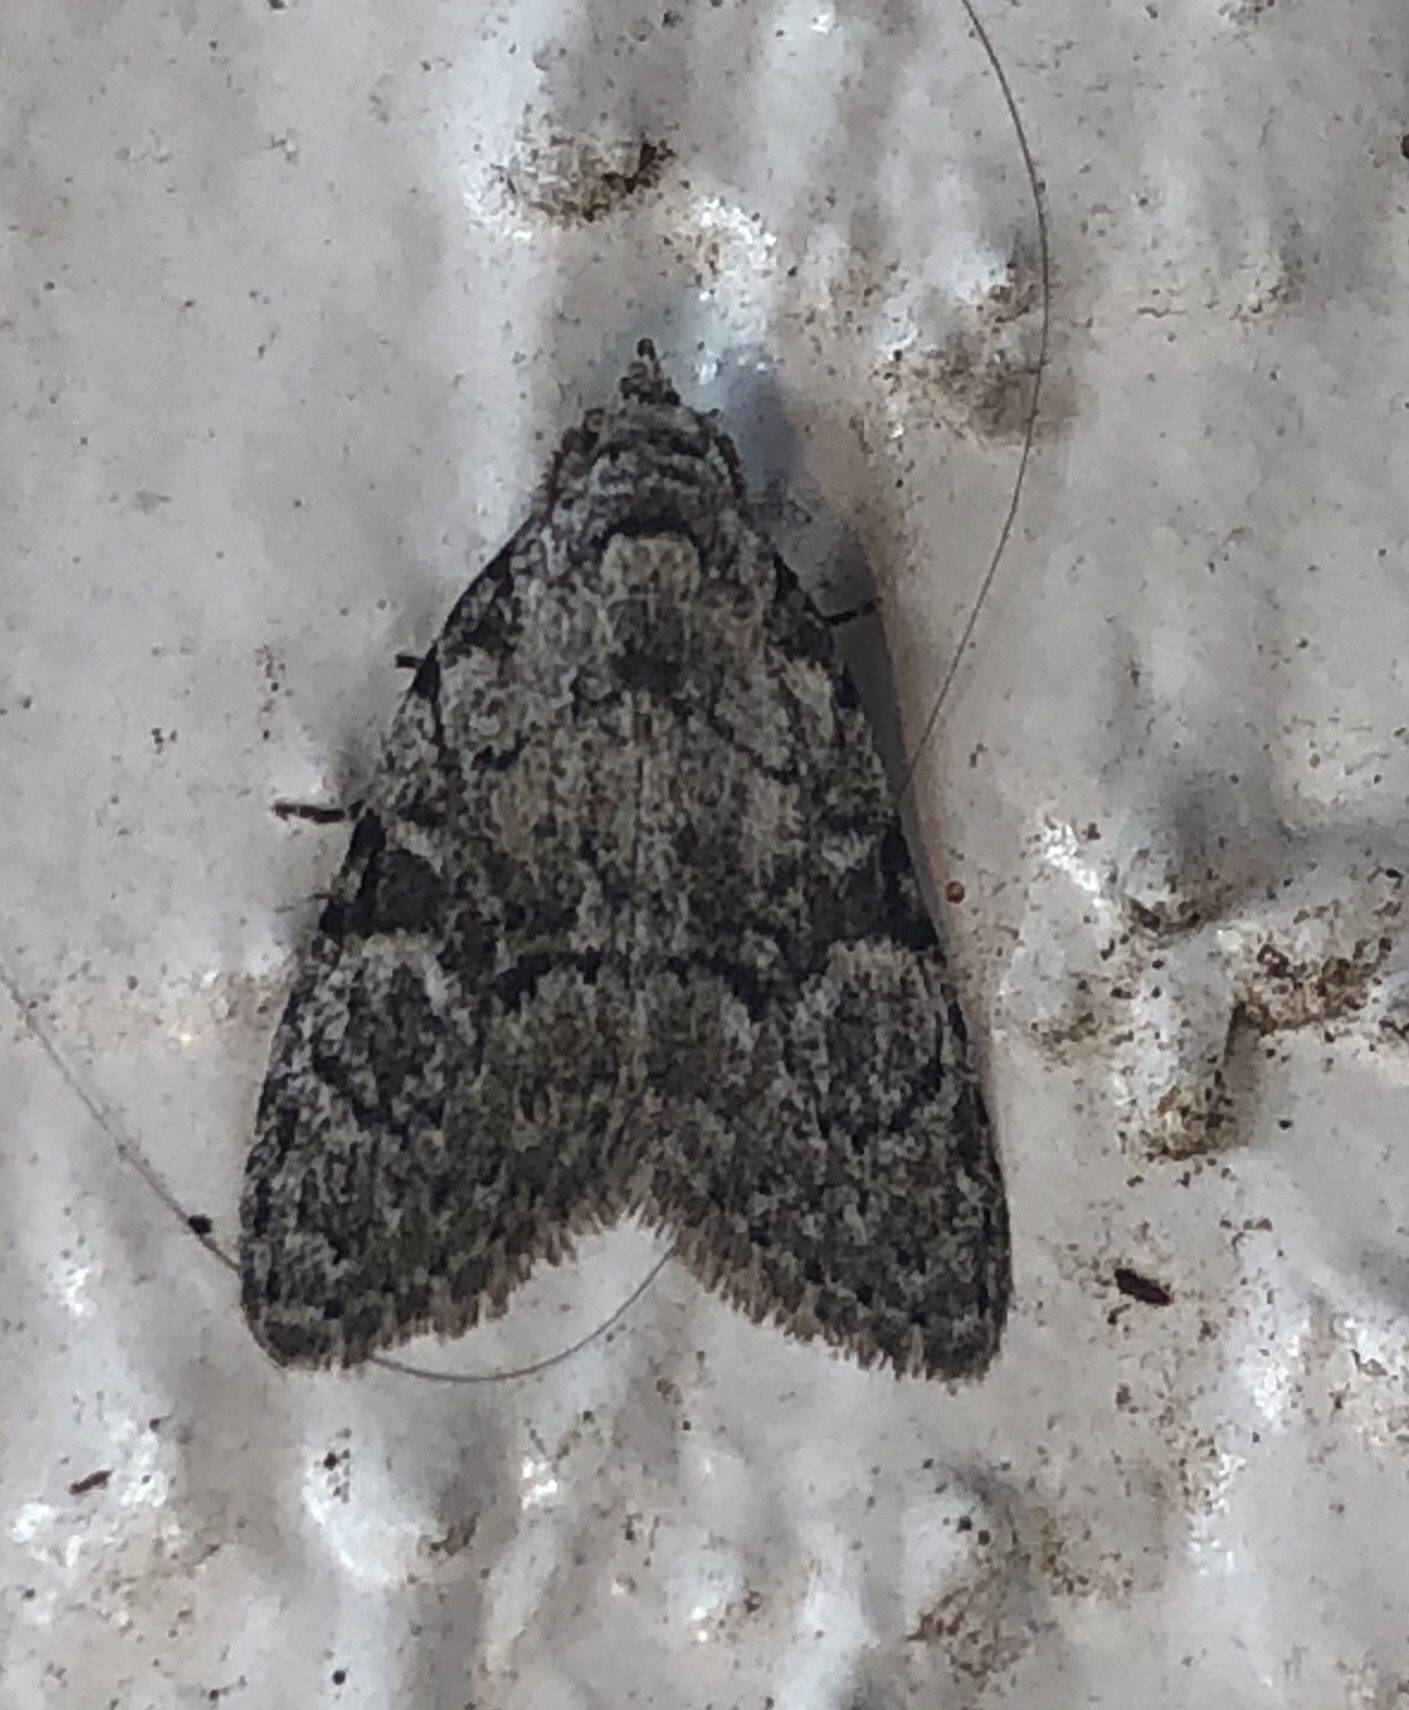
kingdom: Animalia
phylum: Arthropoda
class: Insecta
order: Lepidoptera
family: Nolidae
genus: Meganola
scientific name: Meganola minuscula
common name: Confused meganola moth
